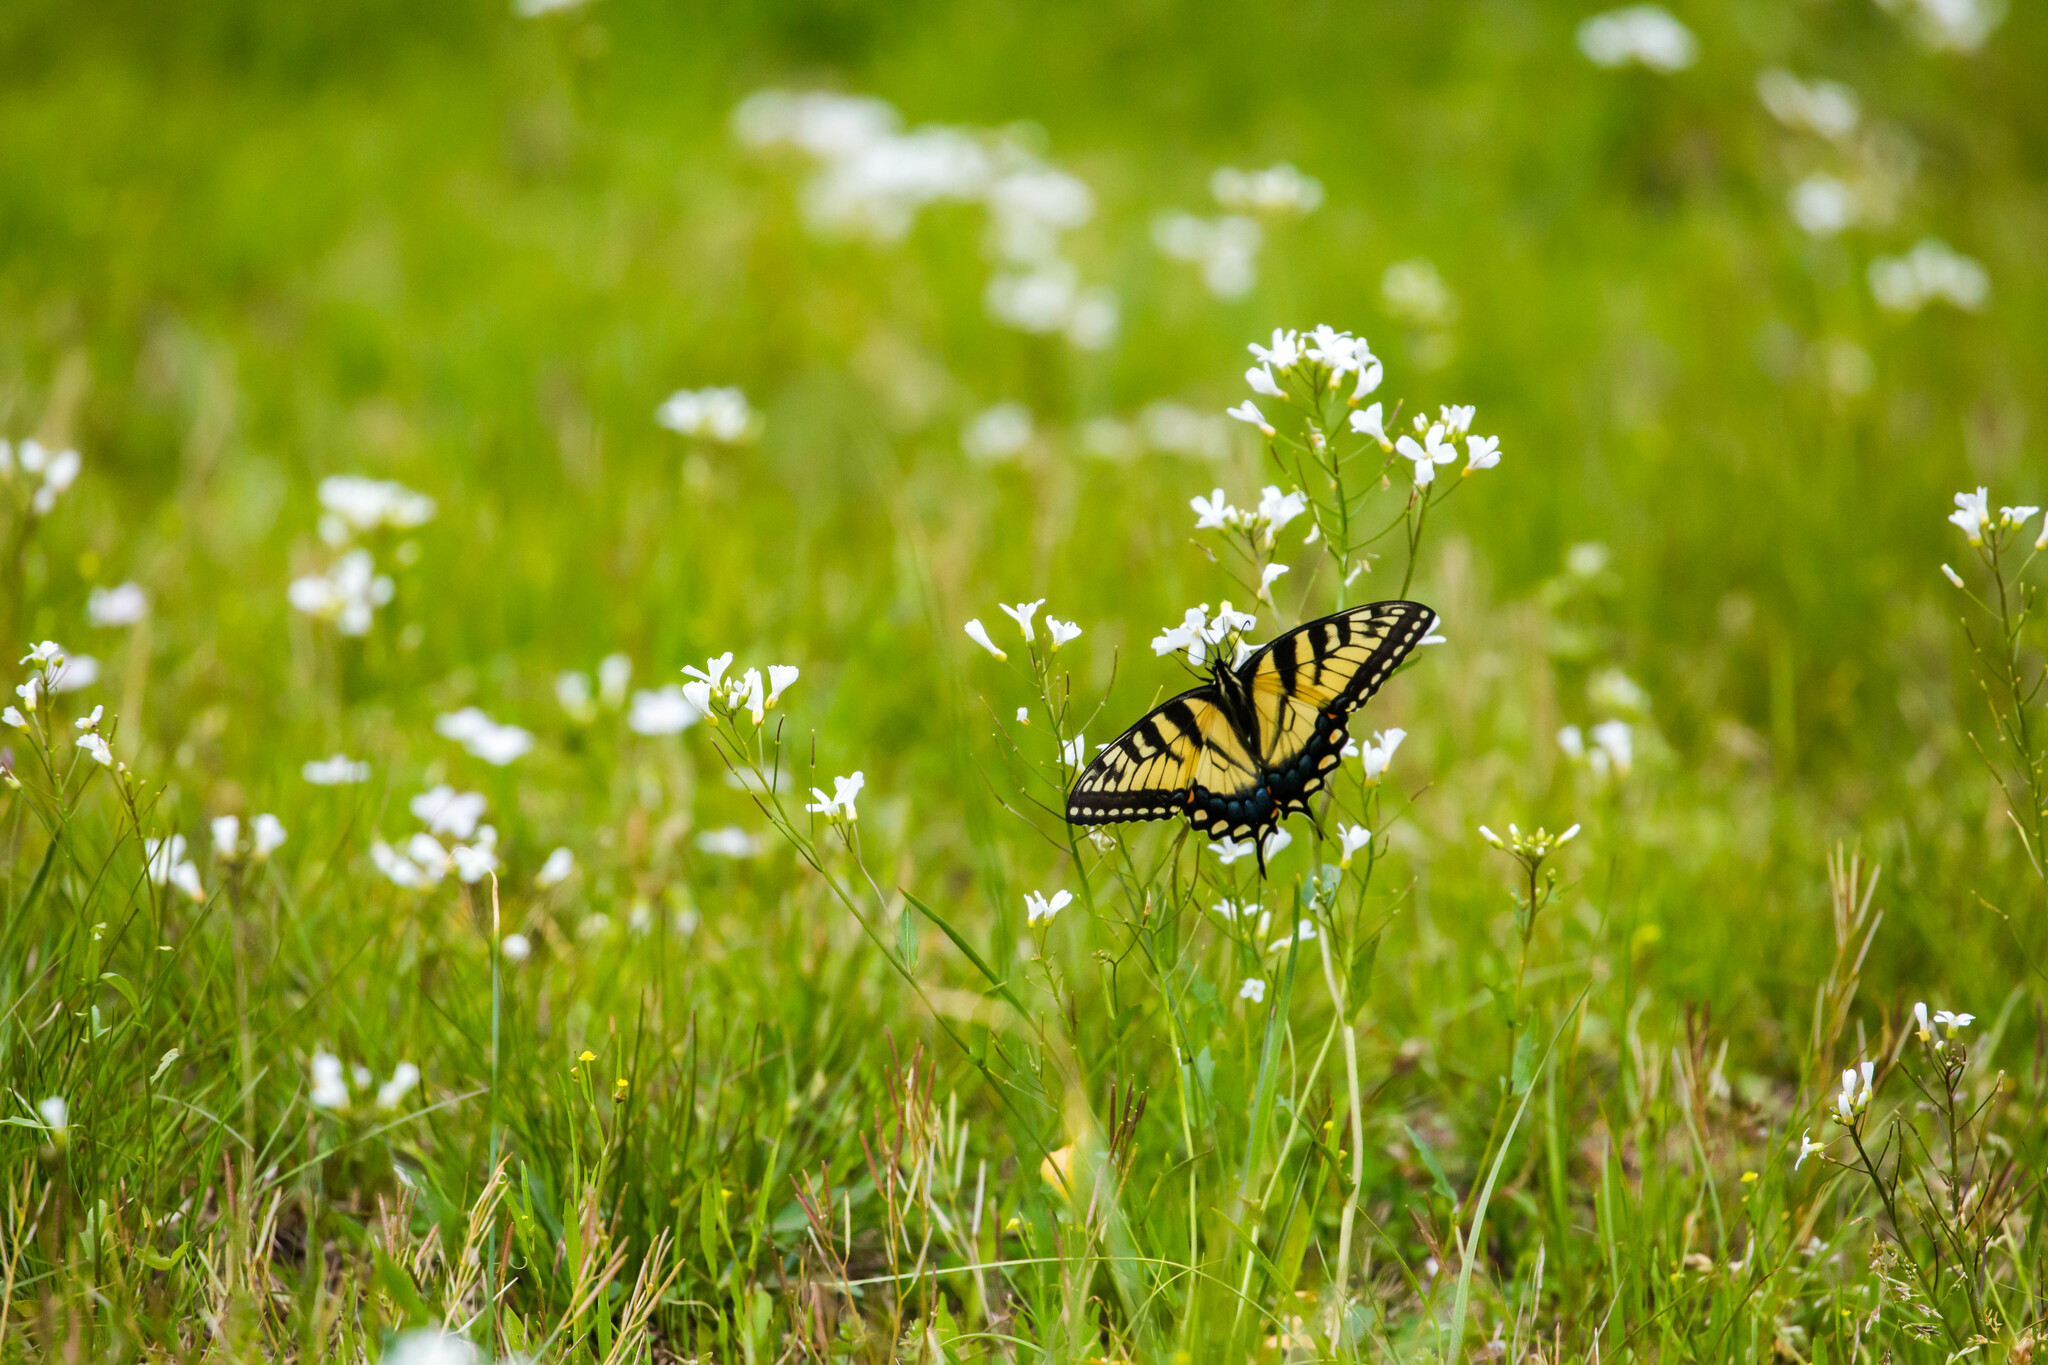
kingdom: Animalia
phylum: Arthropoda
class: Insecta
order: Lepidoptera
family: Papilionidae
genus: Papilio
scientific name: Papilio glaucus
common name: Tiger swallowtail
